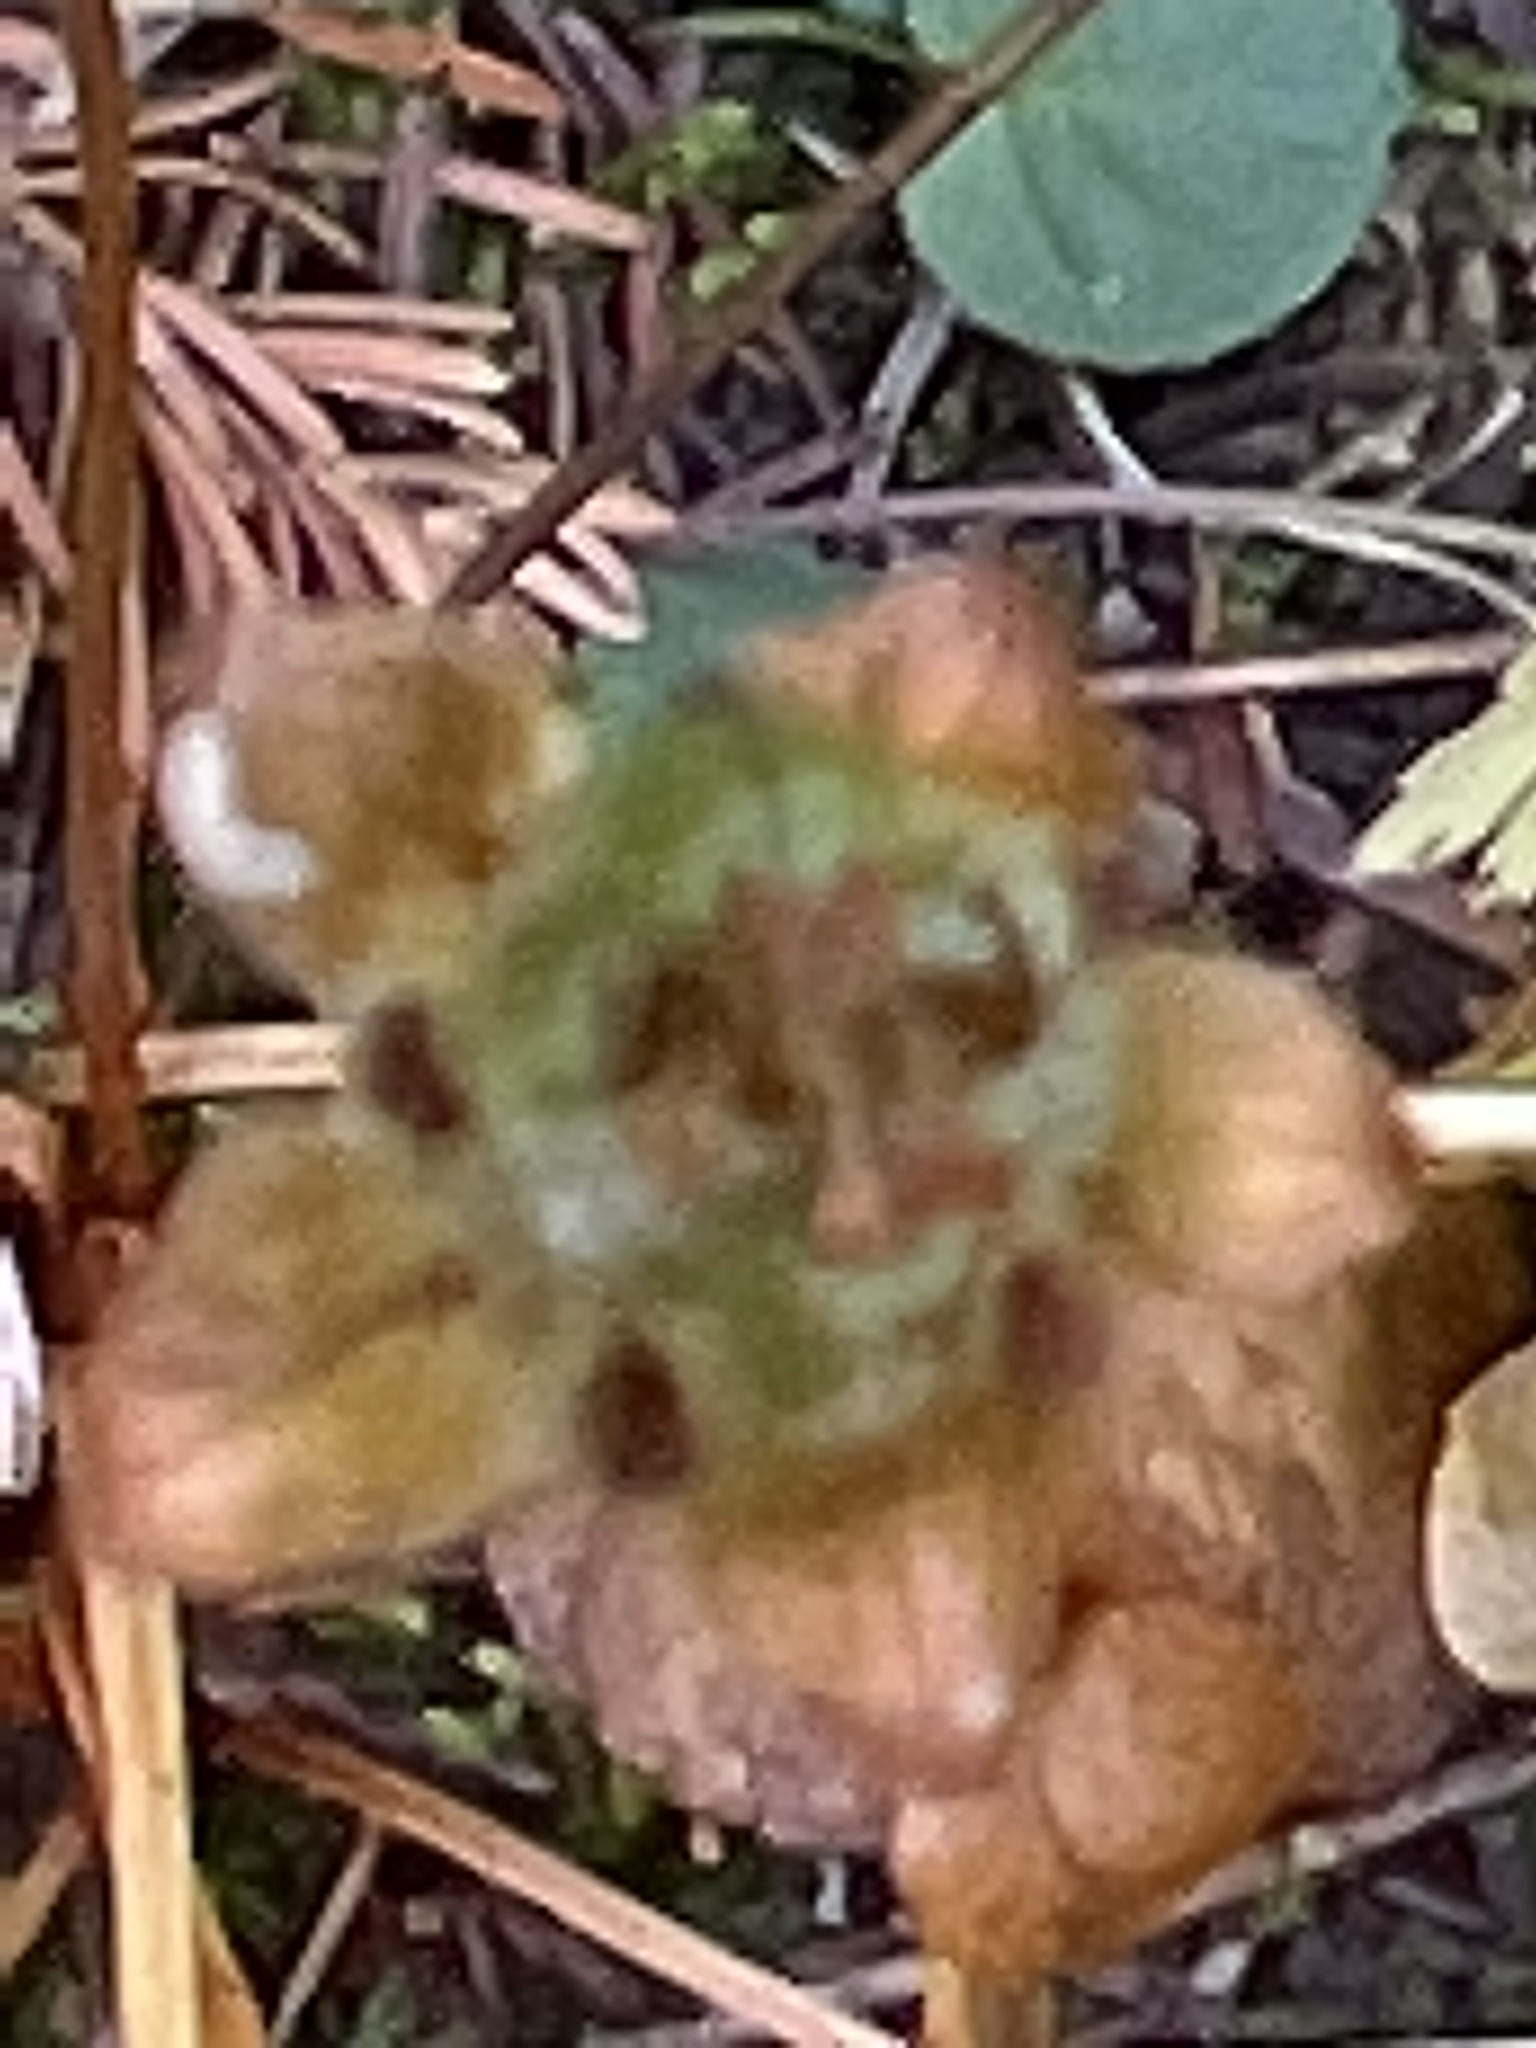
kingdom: Plantae
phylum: Tracheophyta
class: Magnoliopsida
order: Celastrales
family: Parnassiaceae
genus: Parnassia
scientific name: Parnassia fimbriata
